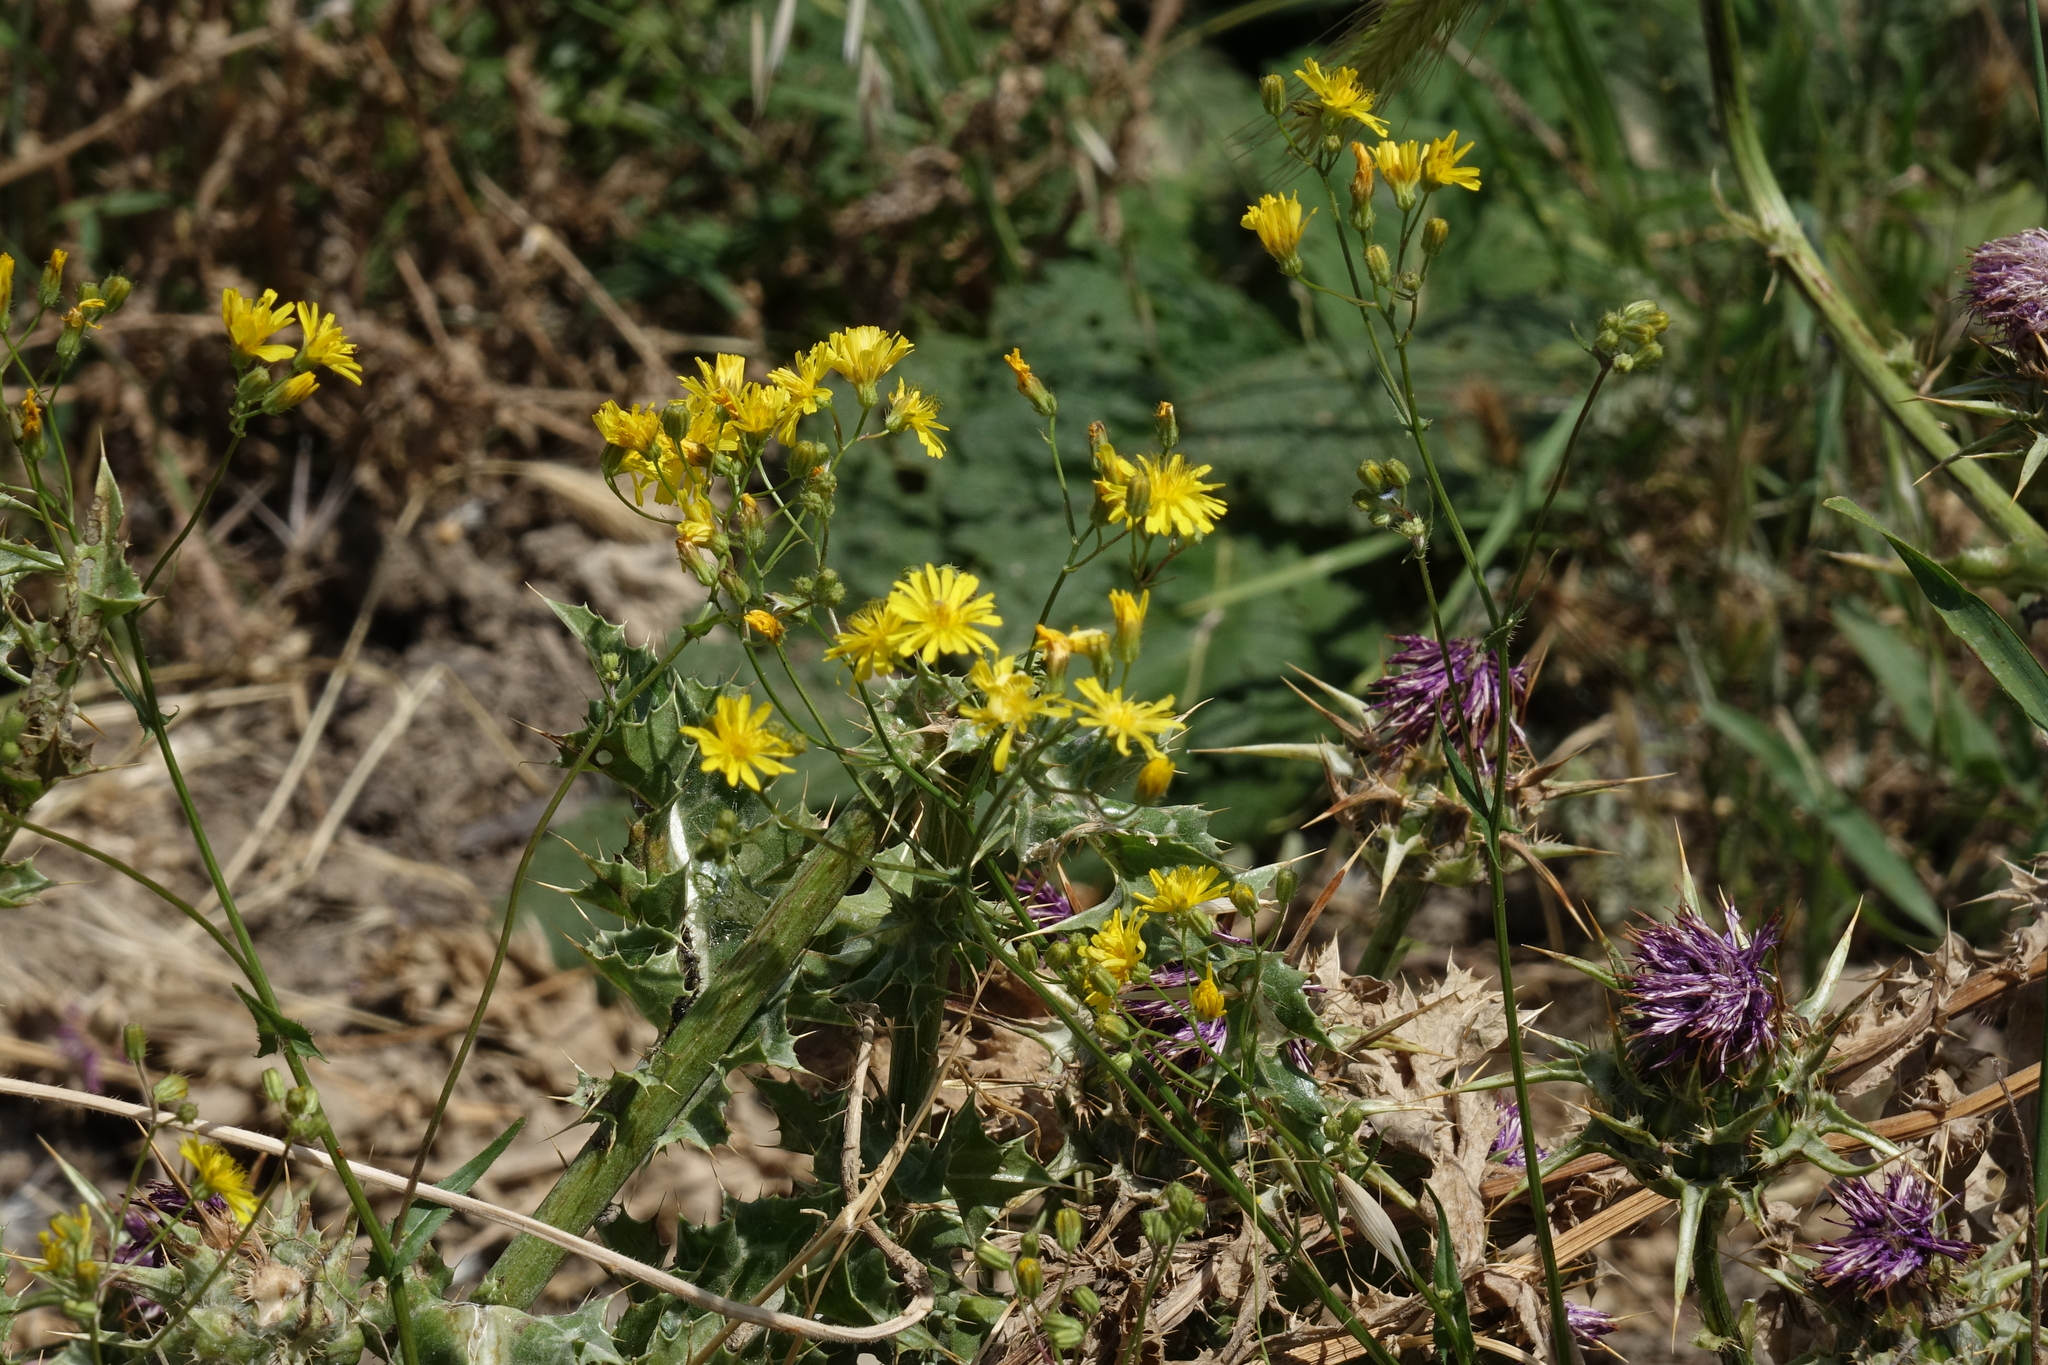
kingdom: Plantae
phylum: Tracheophyta
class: Magnoliopsida
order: Asterales
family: Asteraceae
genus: Lapsana
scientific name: Lapsana communis
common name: Nipplewort
